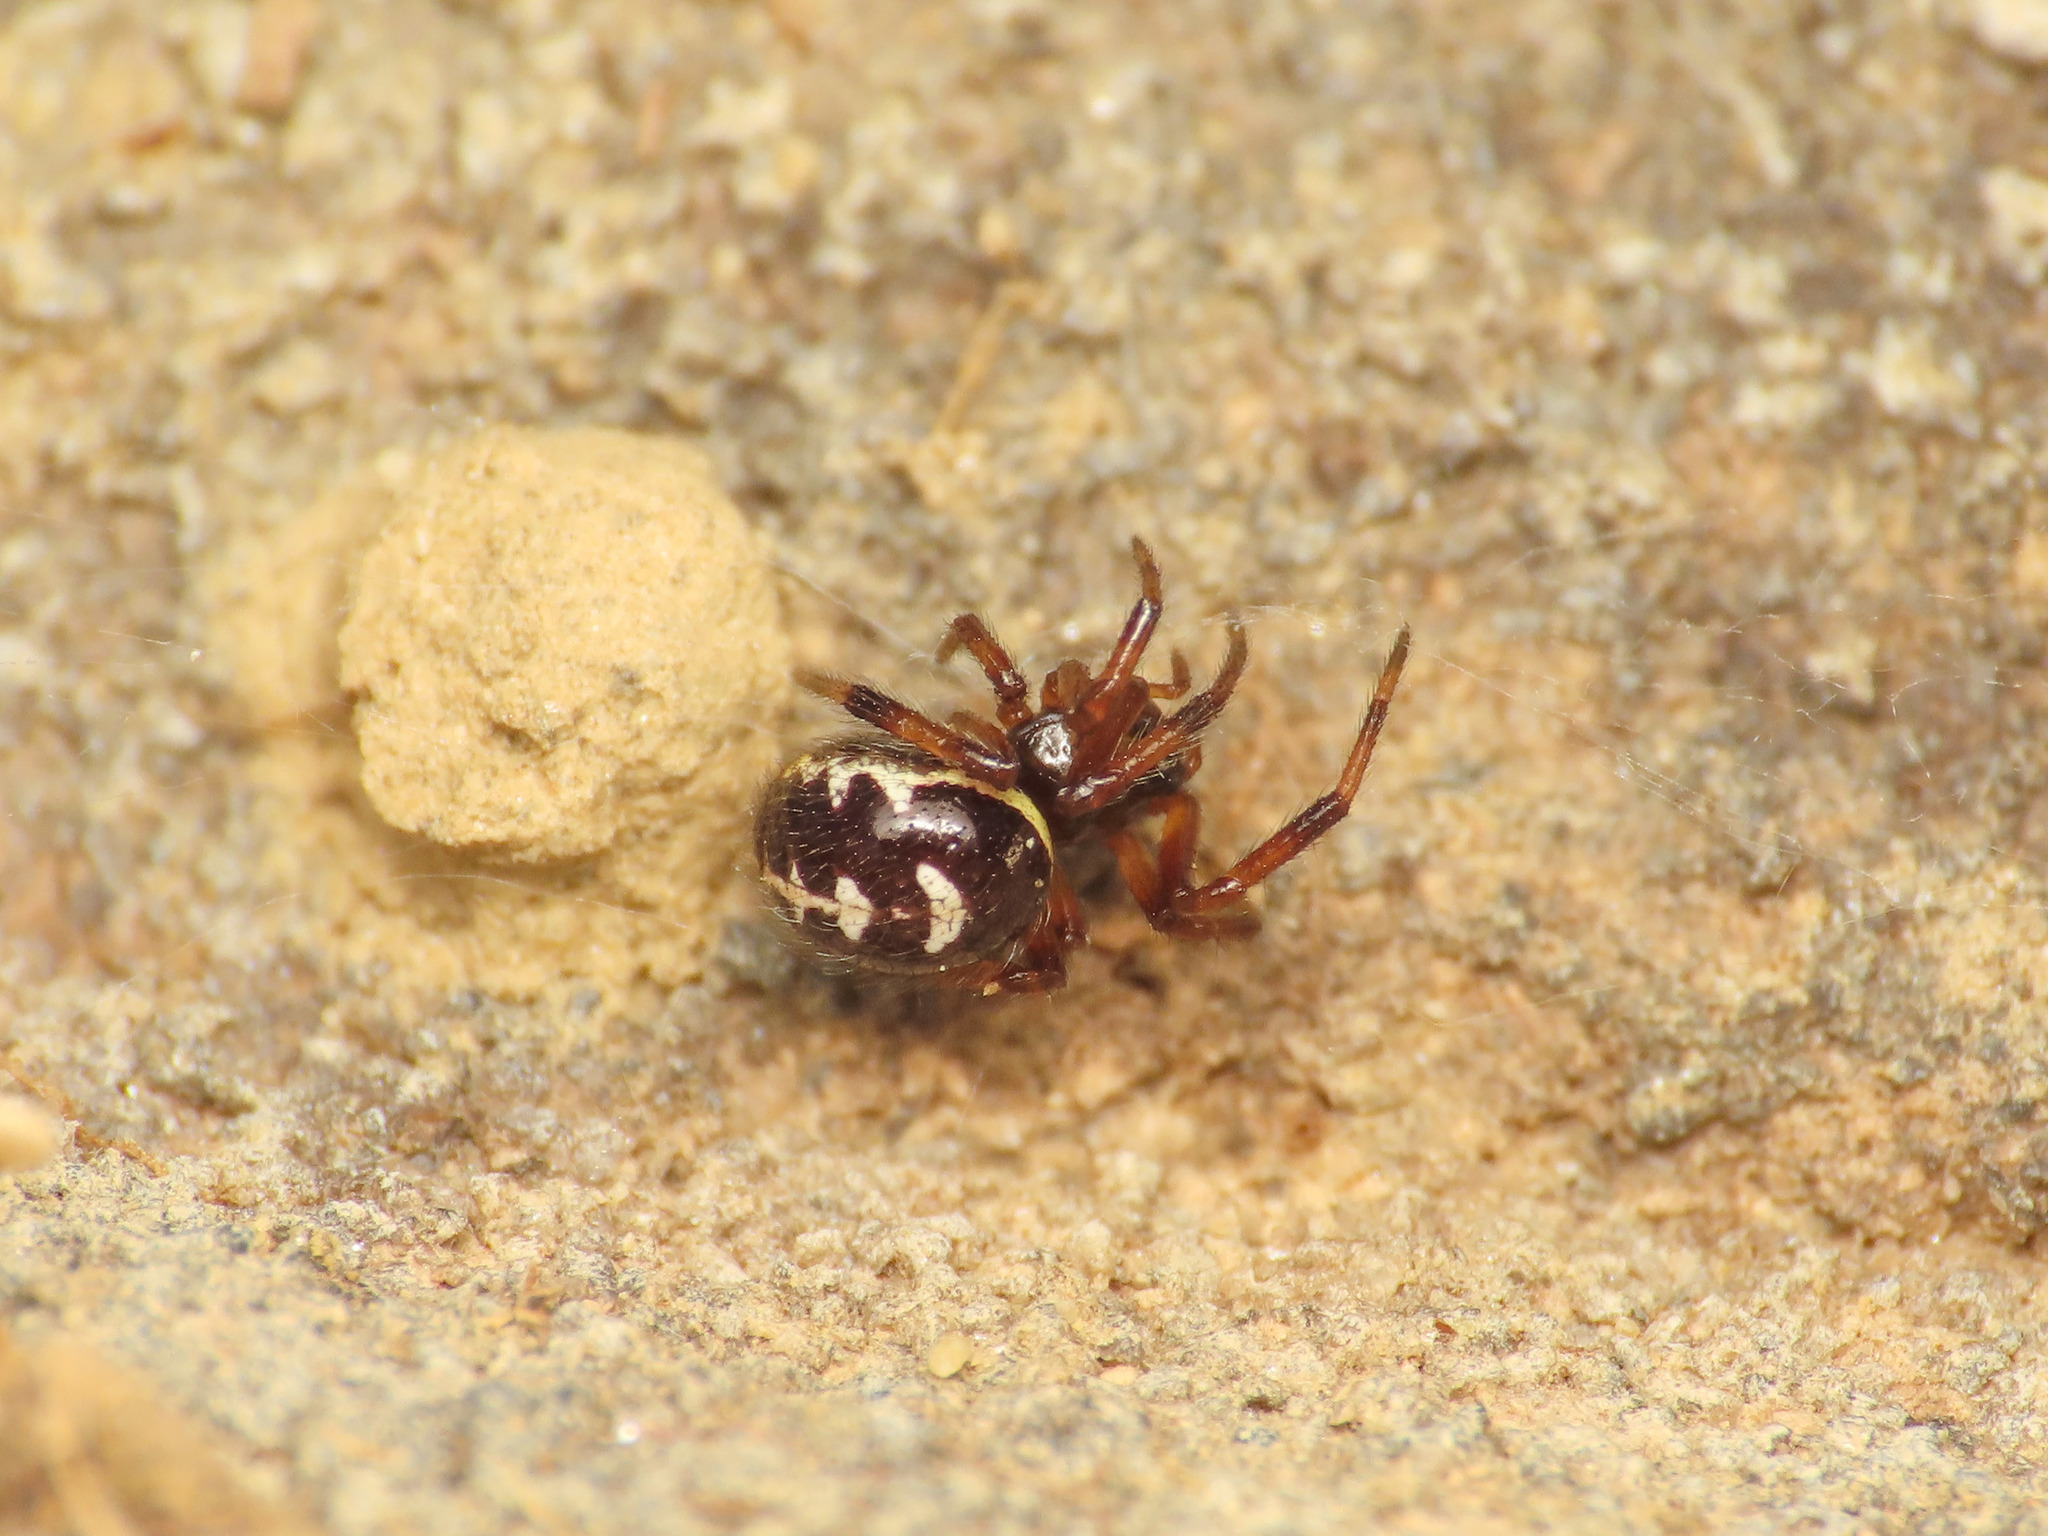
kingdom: Animalia
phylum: Arthropoda
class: Arachnida
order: Araneae
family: Theridiidae
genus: Steatoda
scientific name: Steatoda paykulliana
